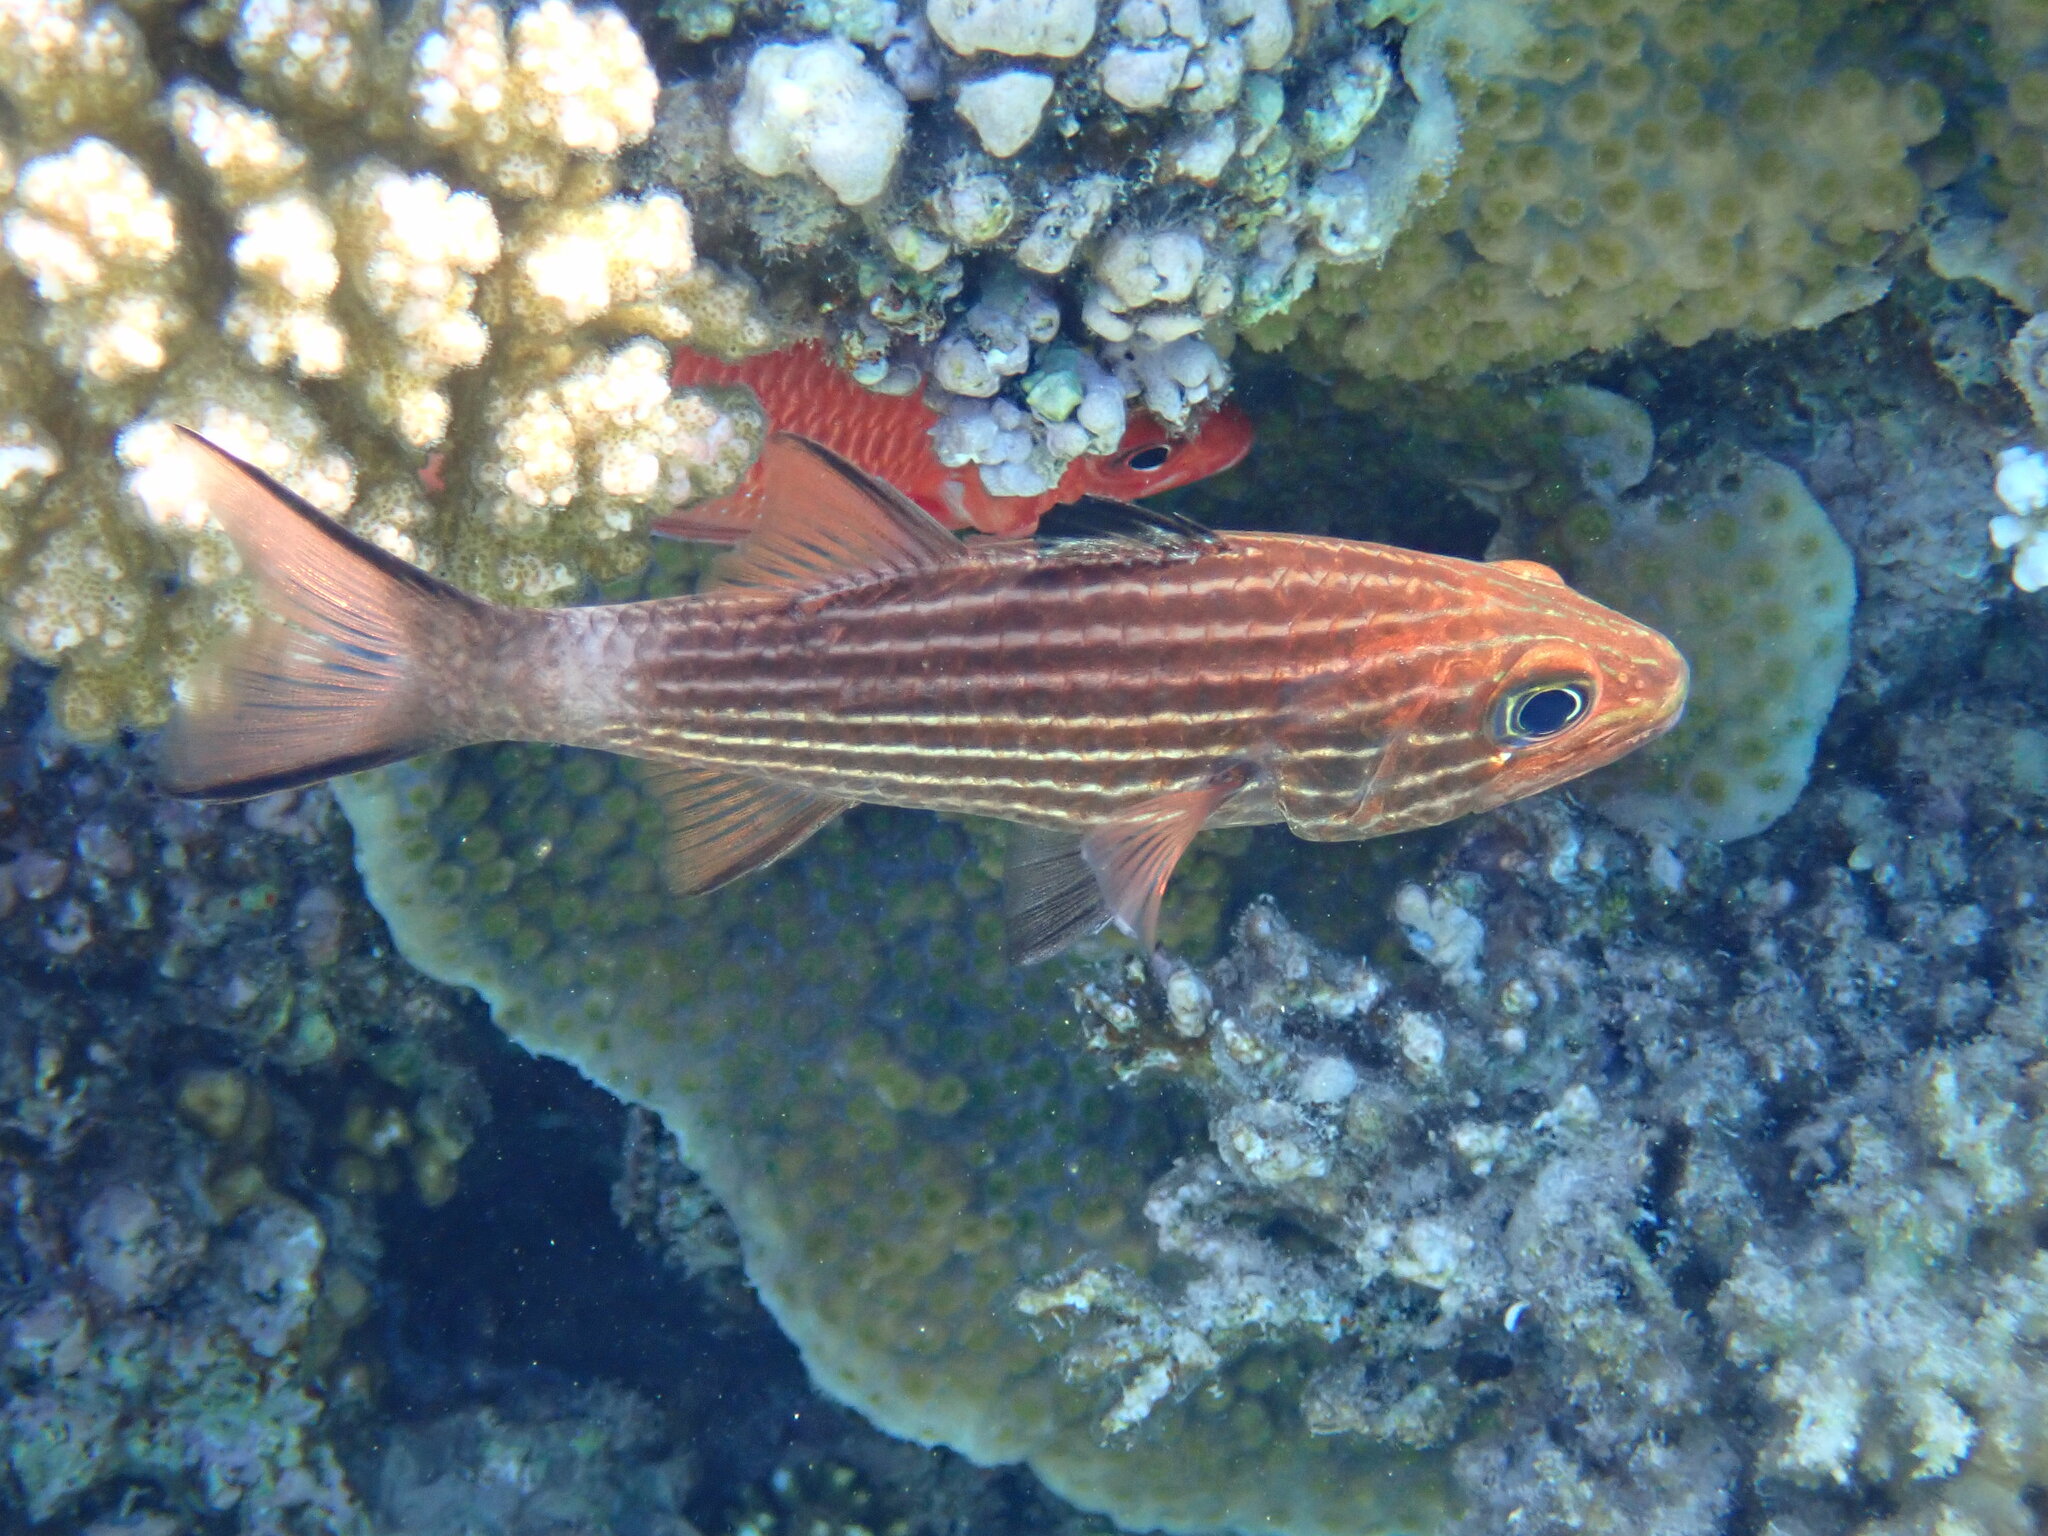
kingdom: Animalia
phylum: Chordata
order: Perciformes
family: Apogonidae
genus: Cheilodipterus
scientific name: Cheilodipterus macrodon
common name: Eight-lined cardinalfish
